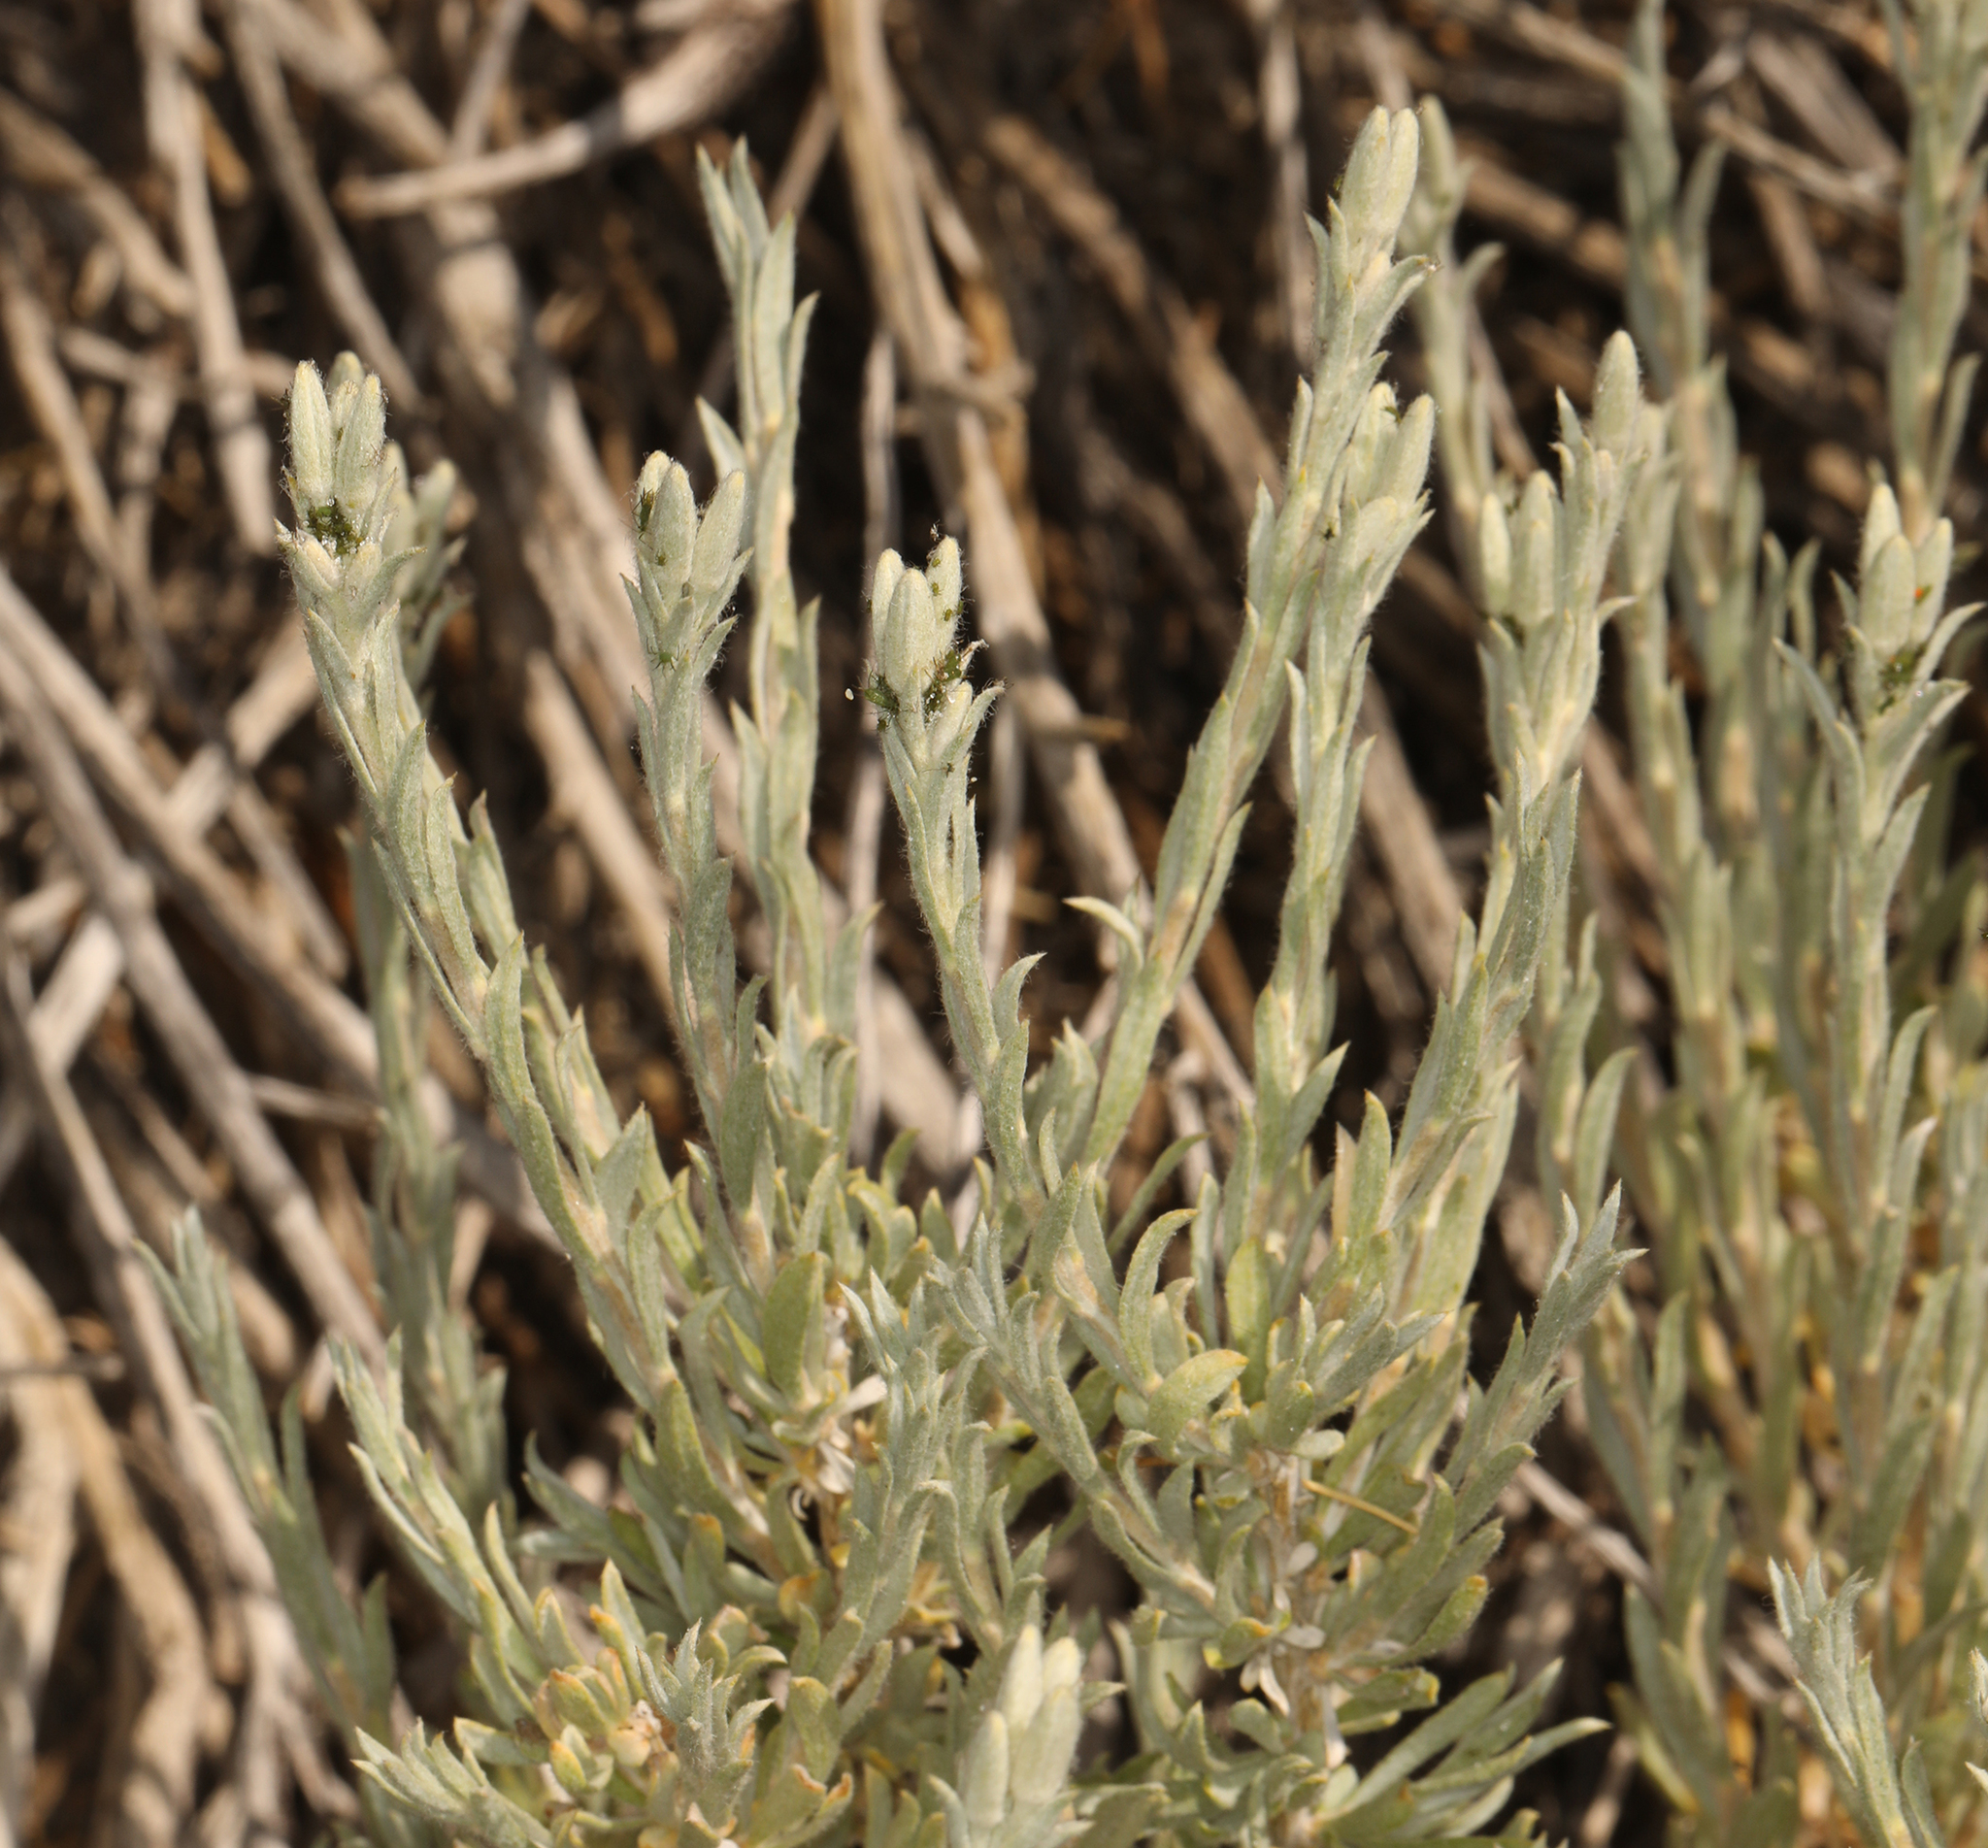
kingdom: Plantae
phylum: Tracheophyta
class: Magnoliopsida
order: Asterales
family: Asteraceae
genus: Tetradymia
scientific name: Tetradymia canescens
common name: Spineless horsebrush
